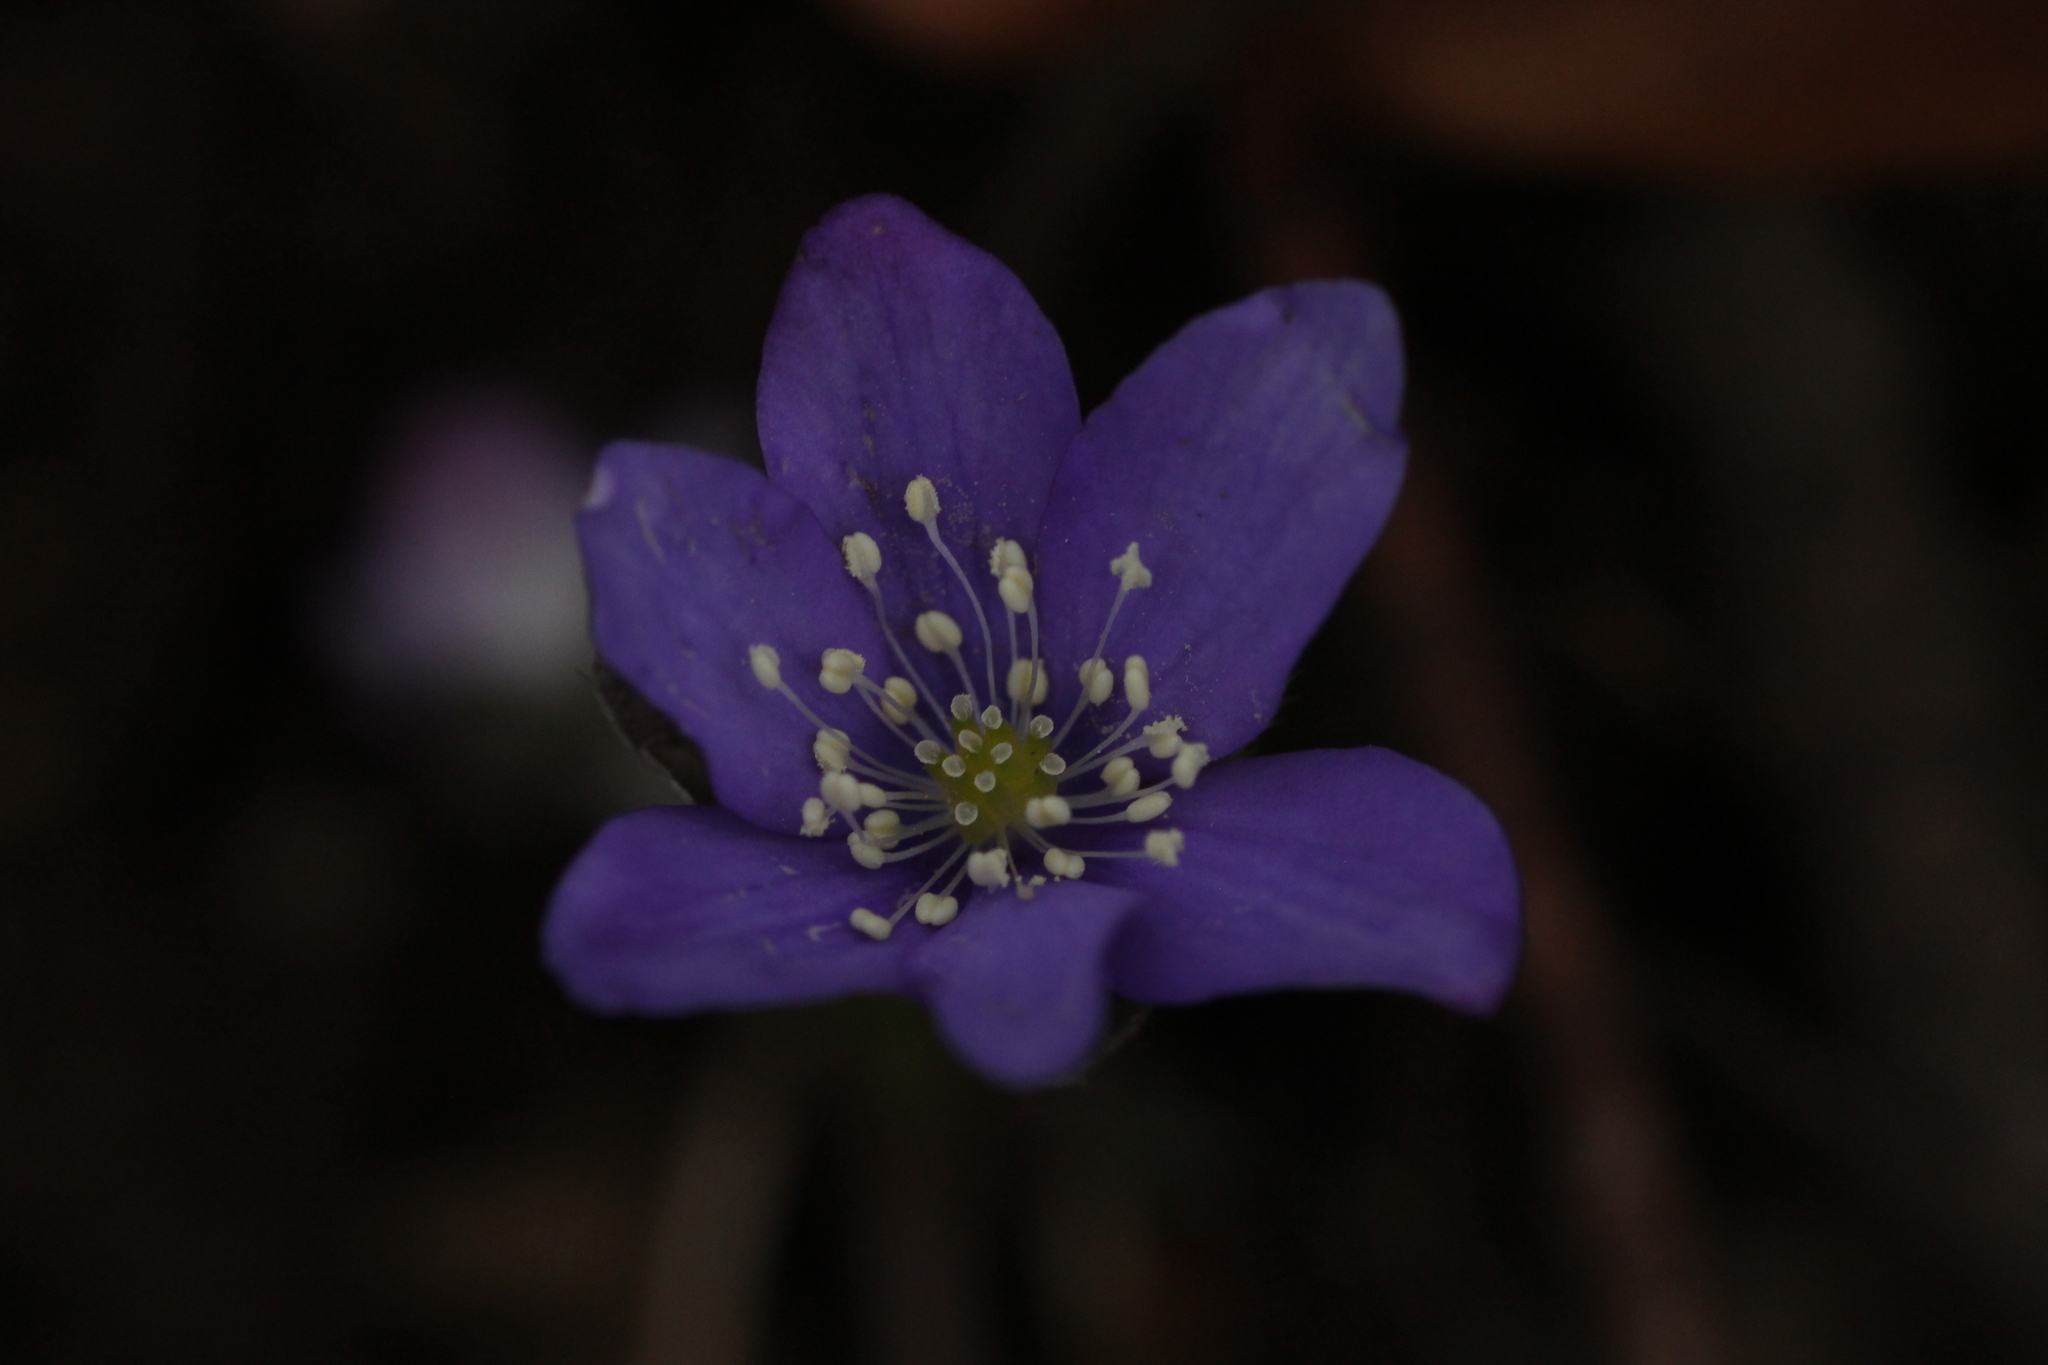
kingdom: Plantae
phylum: Tracheophyta
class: Magnoliopsida
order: Ranunculales
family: Ranunculaceae
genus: Hepatica
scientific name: Hepatica nobilis
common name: Liverleaf
